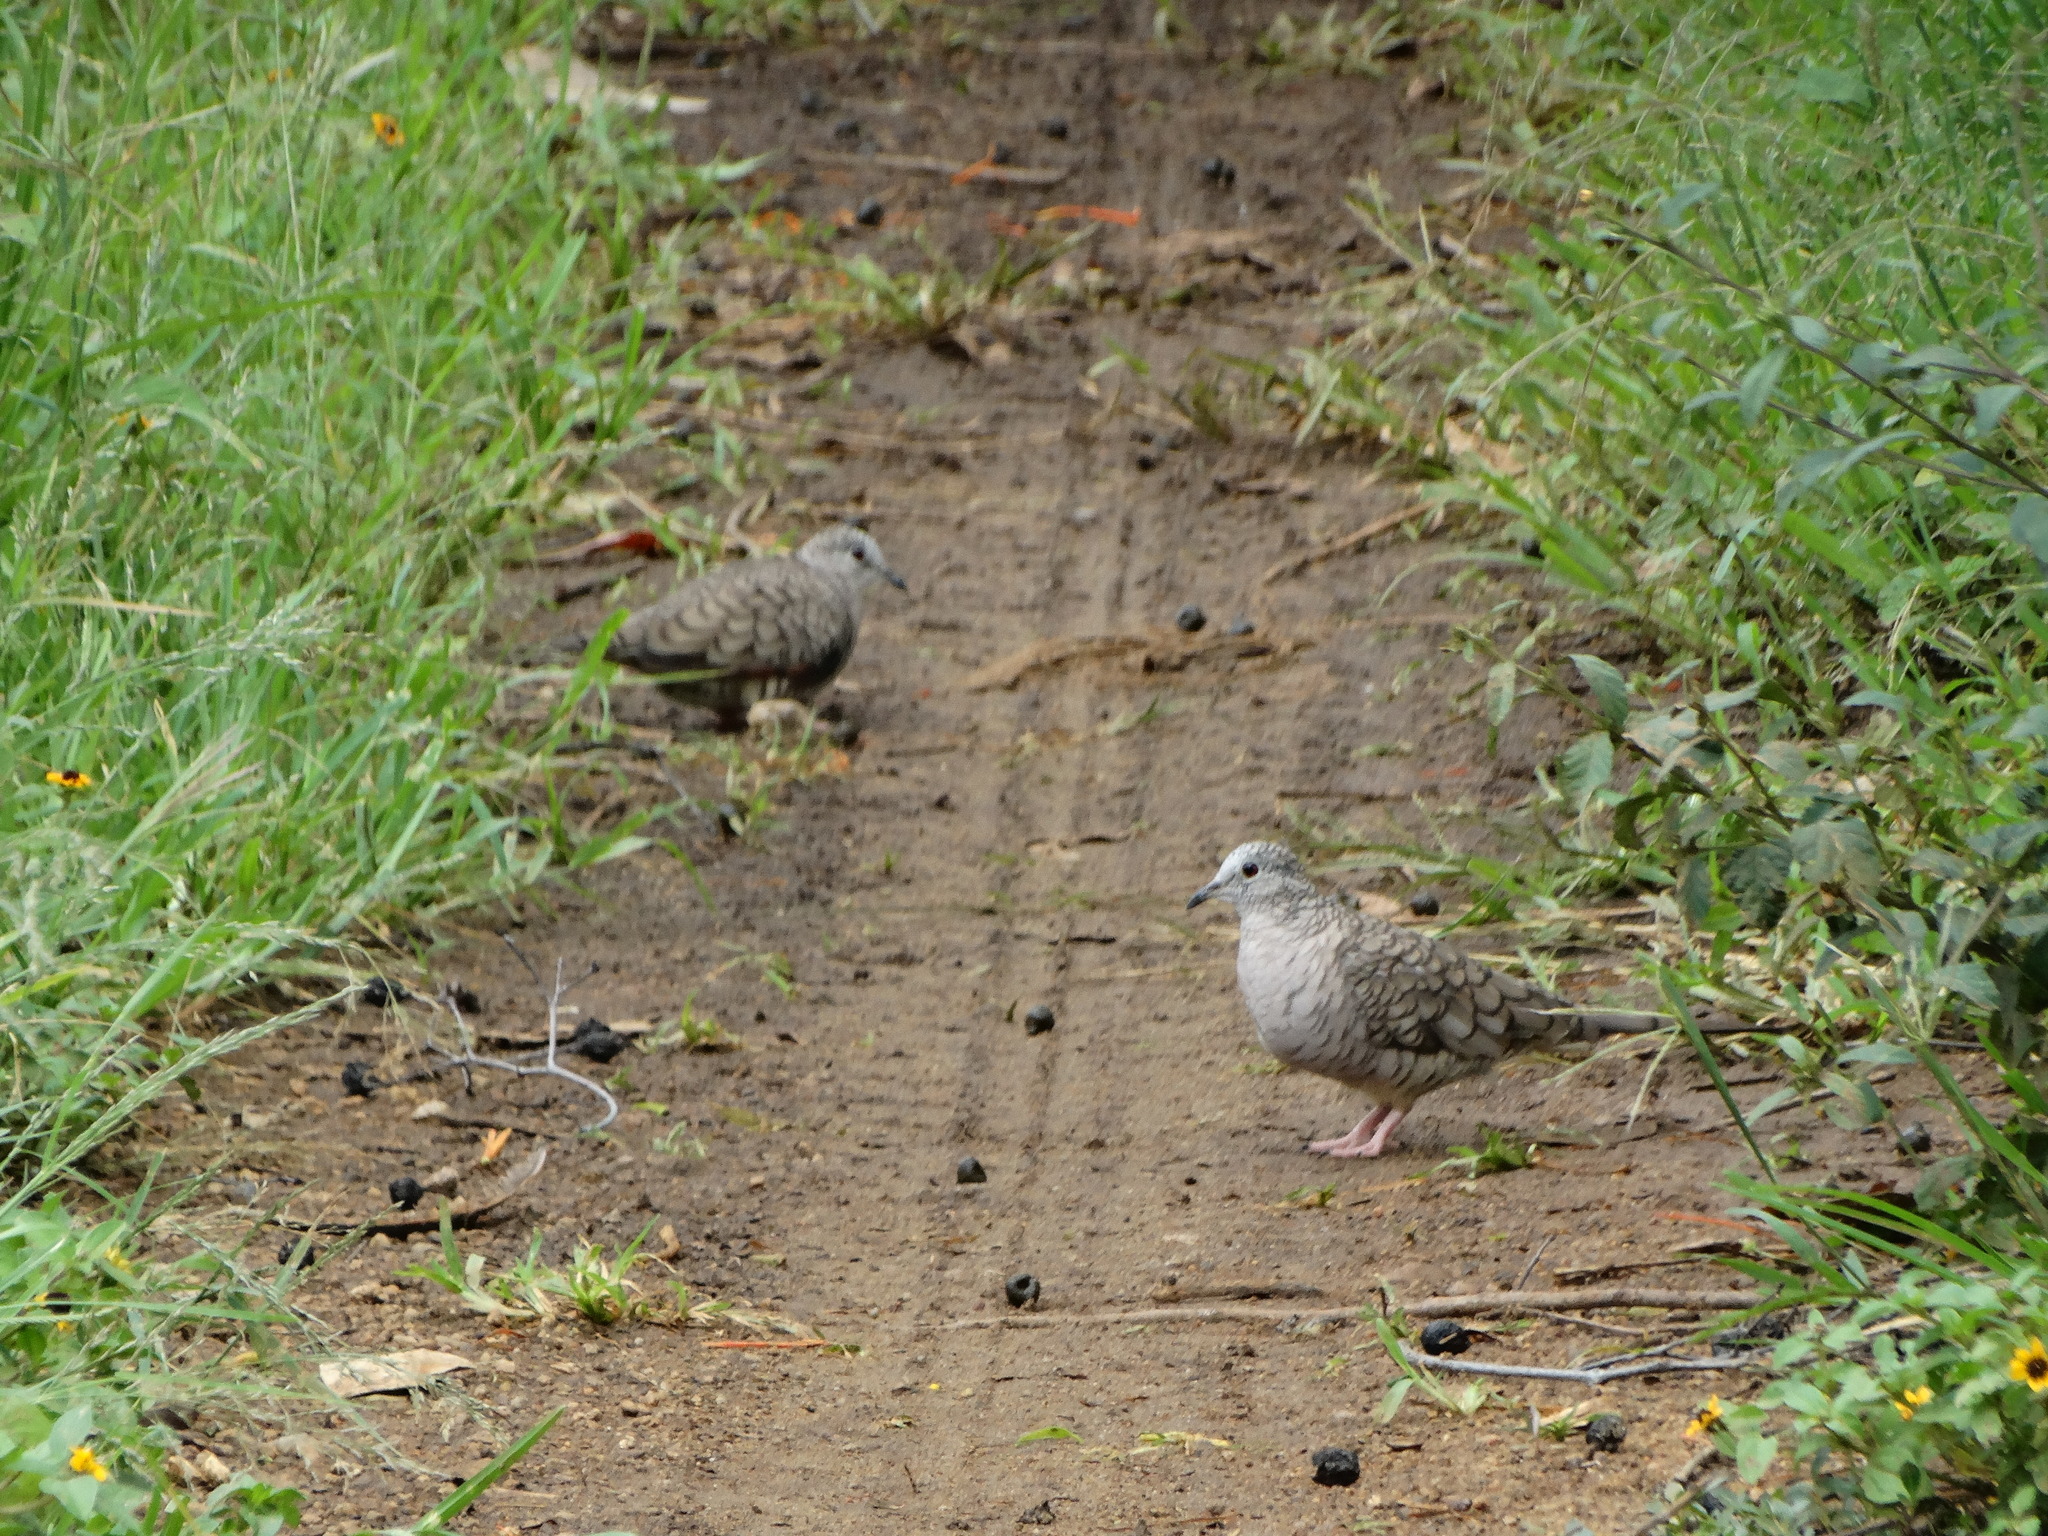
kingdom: Animalia
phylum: Chordata
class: Aves
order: Columbiformes
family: Columbidae
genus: Columbina
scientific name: Columbina inca
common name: Inca dove
